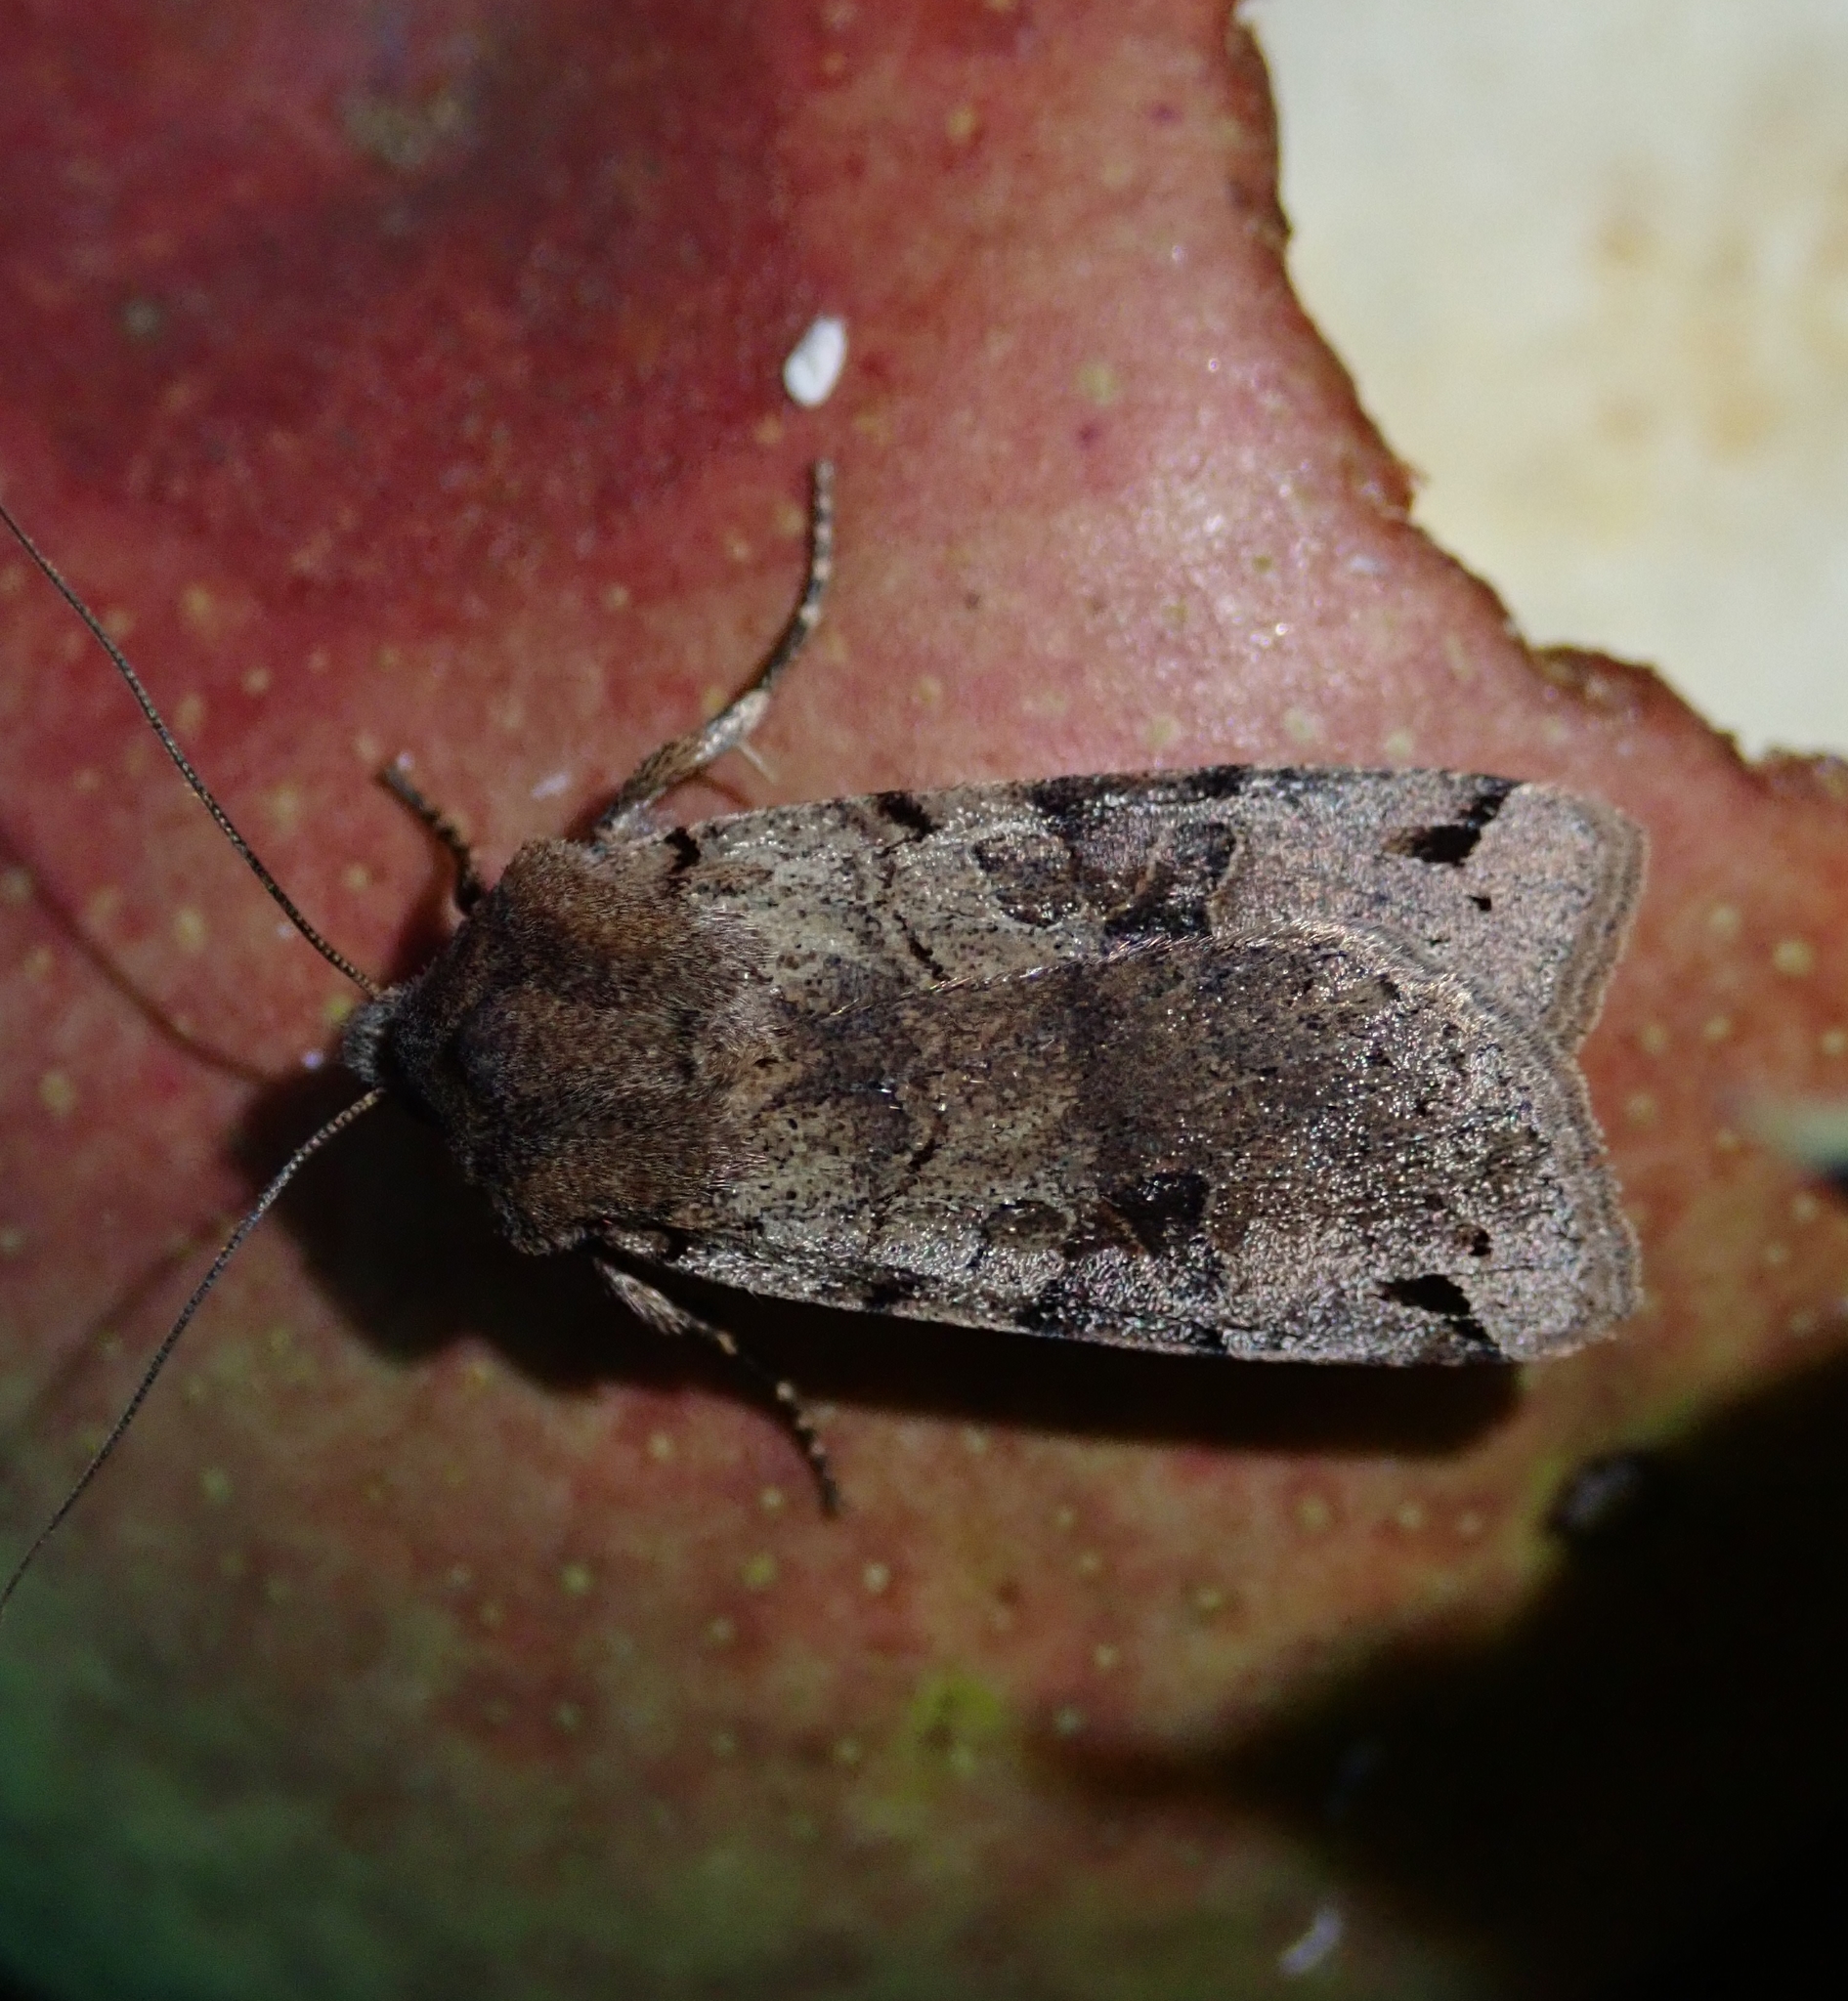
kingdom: Animalia
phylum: Arthropoda
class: Insecta
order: Lepidoptera
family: Noctuidae
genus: Agrochola
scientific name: Agrochola litura
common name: Brown-spot pinion
